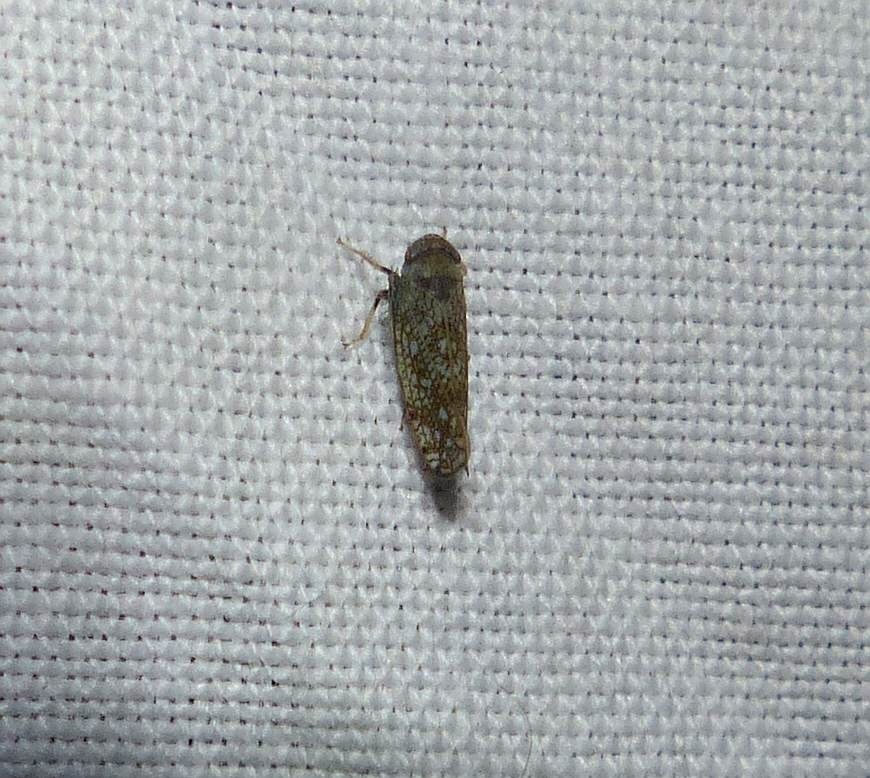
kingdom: Animalia
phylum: Arthropoda
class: Insecta
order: Hemiptera
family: Cicadellidae
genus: Orientus
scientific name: Orientus ishidae
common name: Japanese leafhopper
